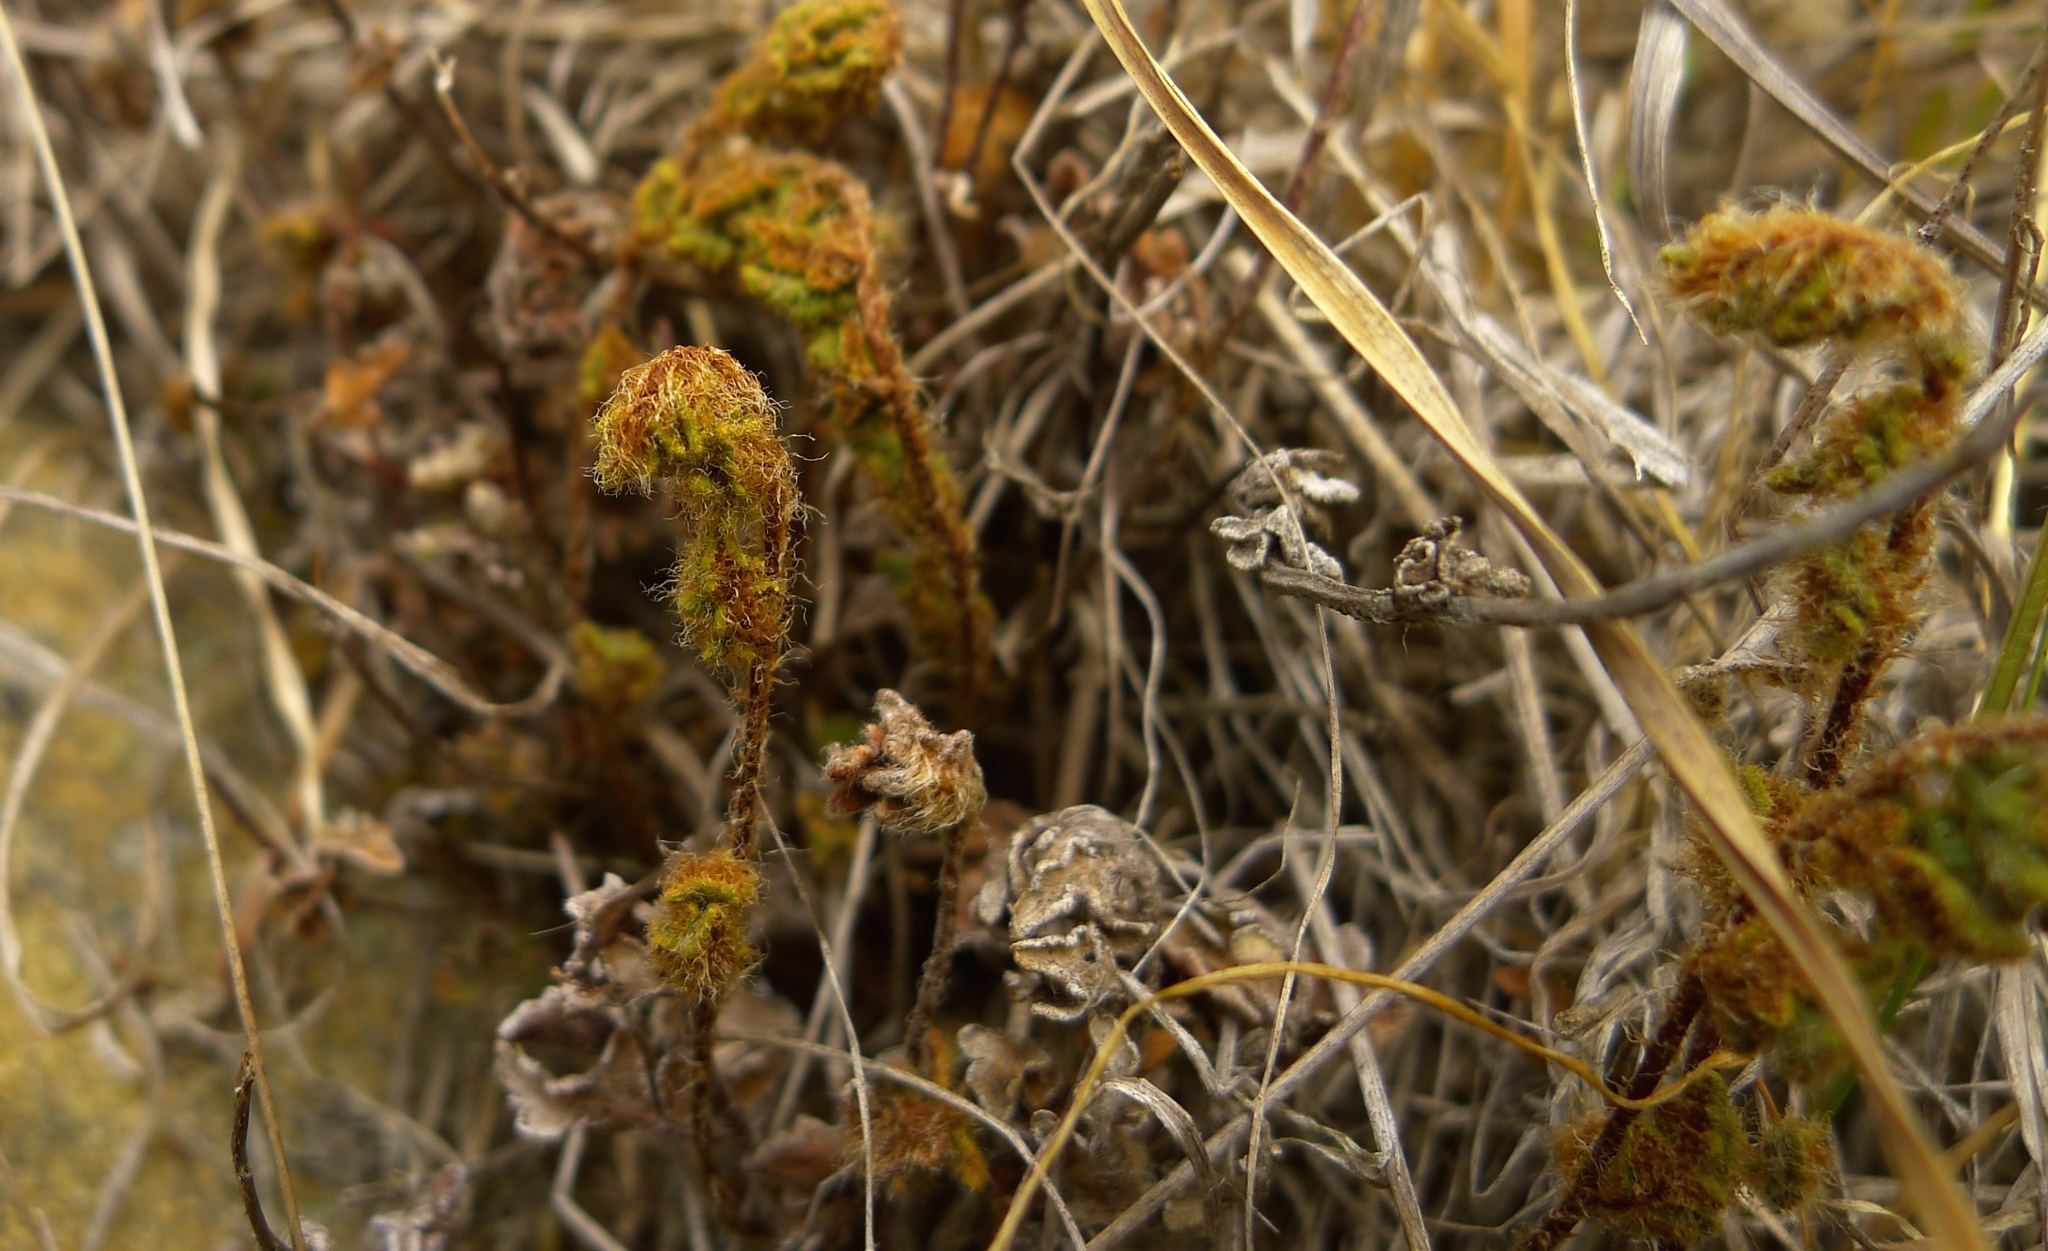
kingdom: Plantae
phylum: Tracheophyta
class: Polypodiopsida
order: Polypodiales
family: Pteridaceae
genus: Cheilanthes
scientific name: Cheilanthes distans
